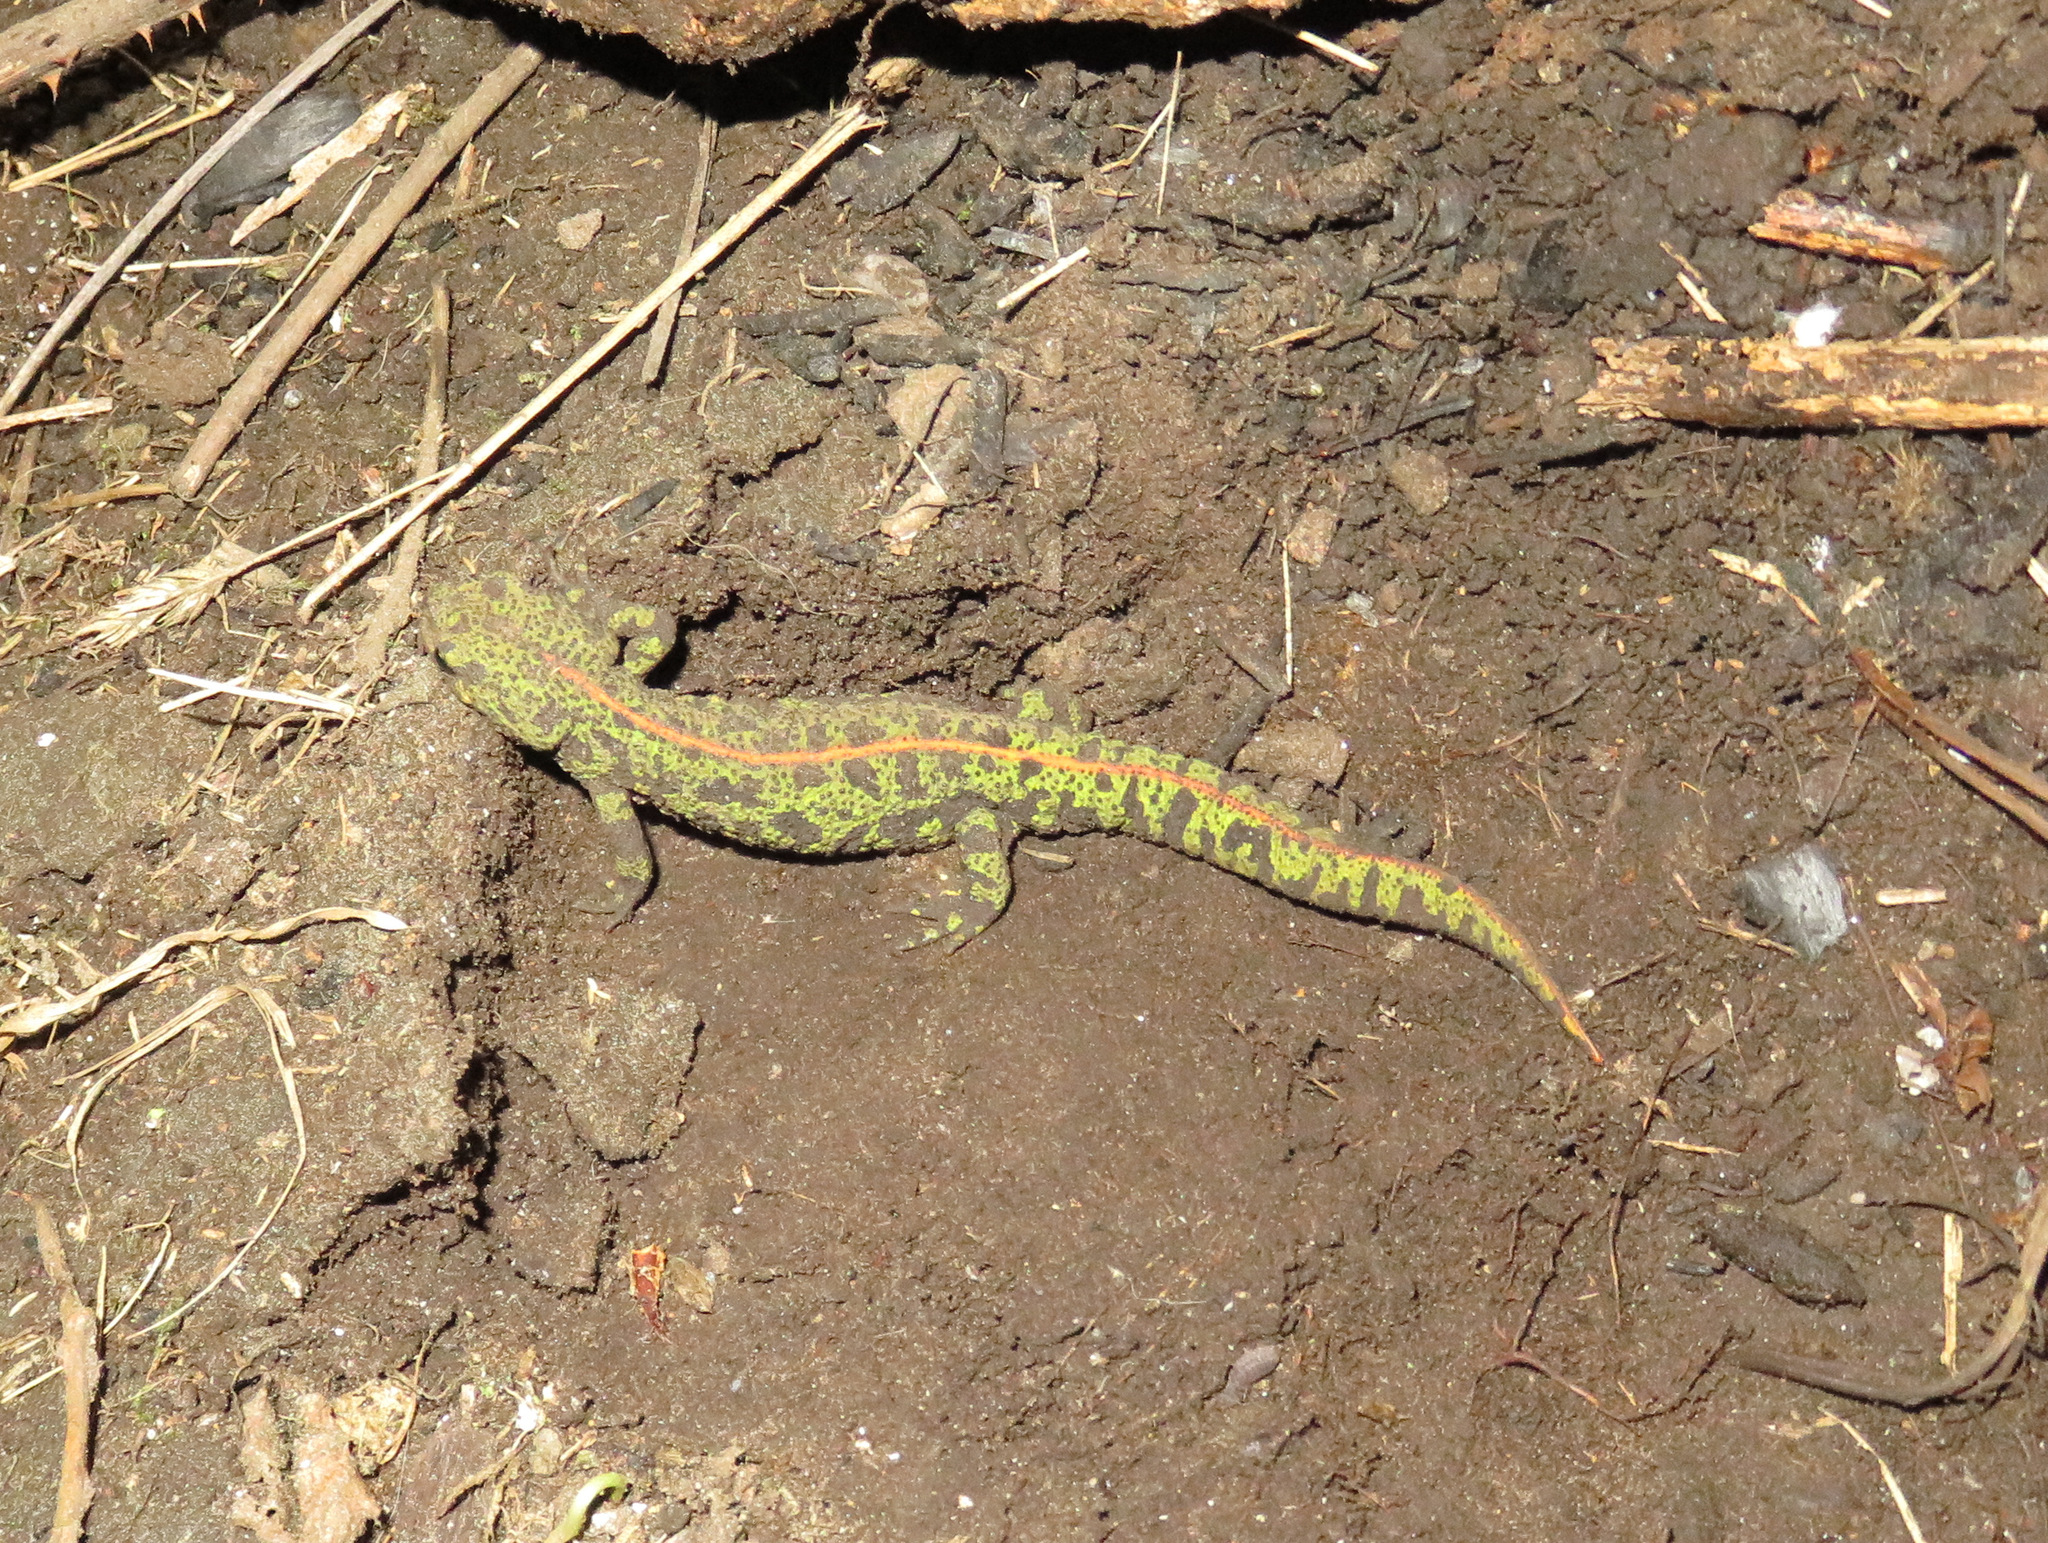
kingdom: Animalia
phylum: Chordata
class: Amphibia
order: Caudata
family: Salamandridae
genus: Triturus
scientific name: Triturus marmoratus
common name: Marbled newt
